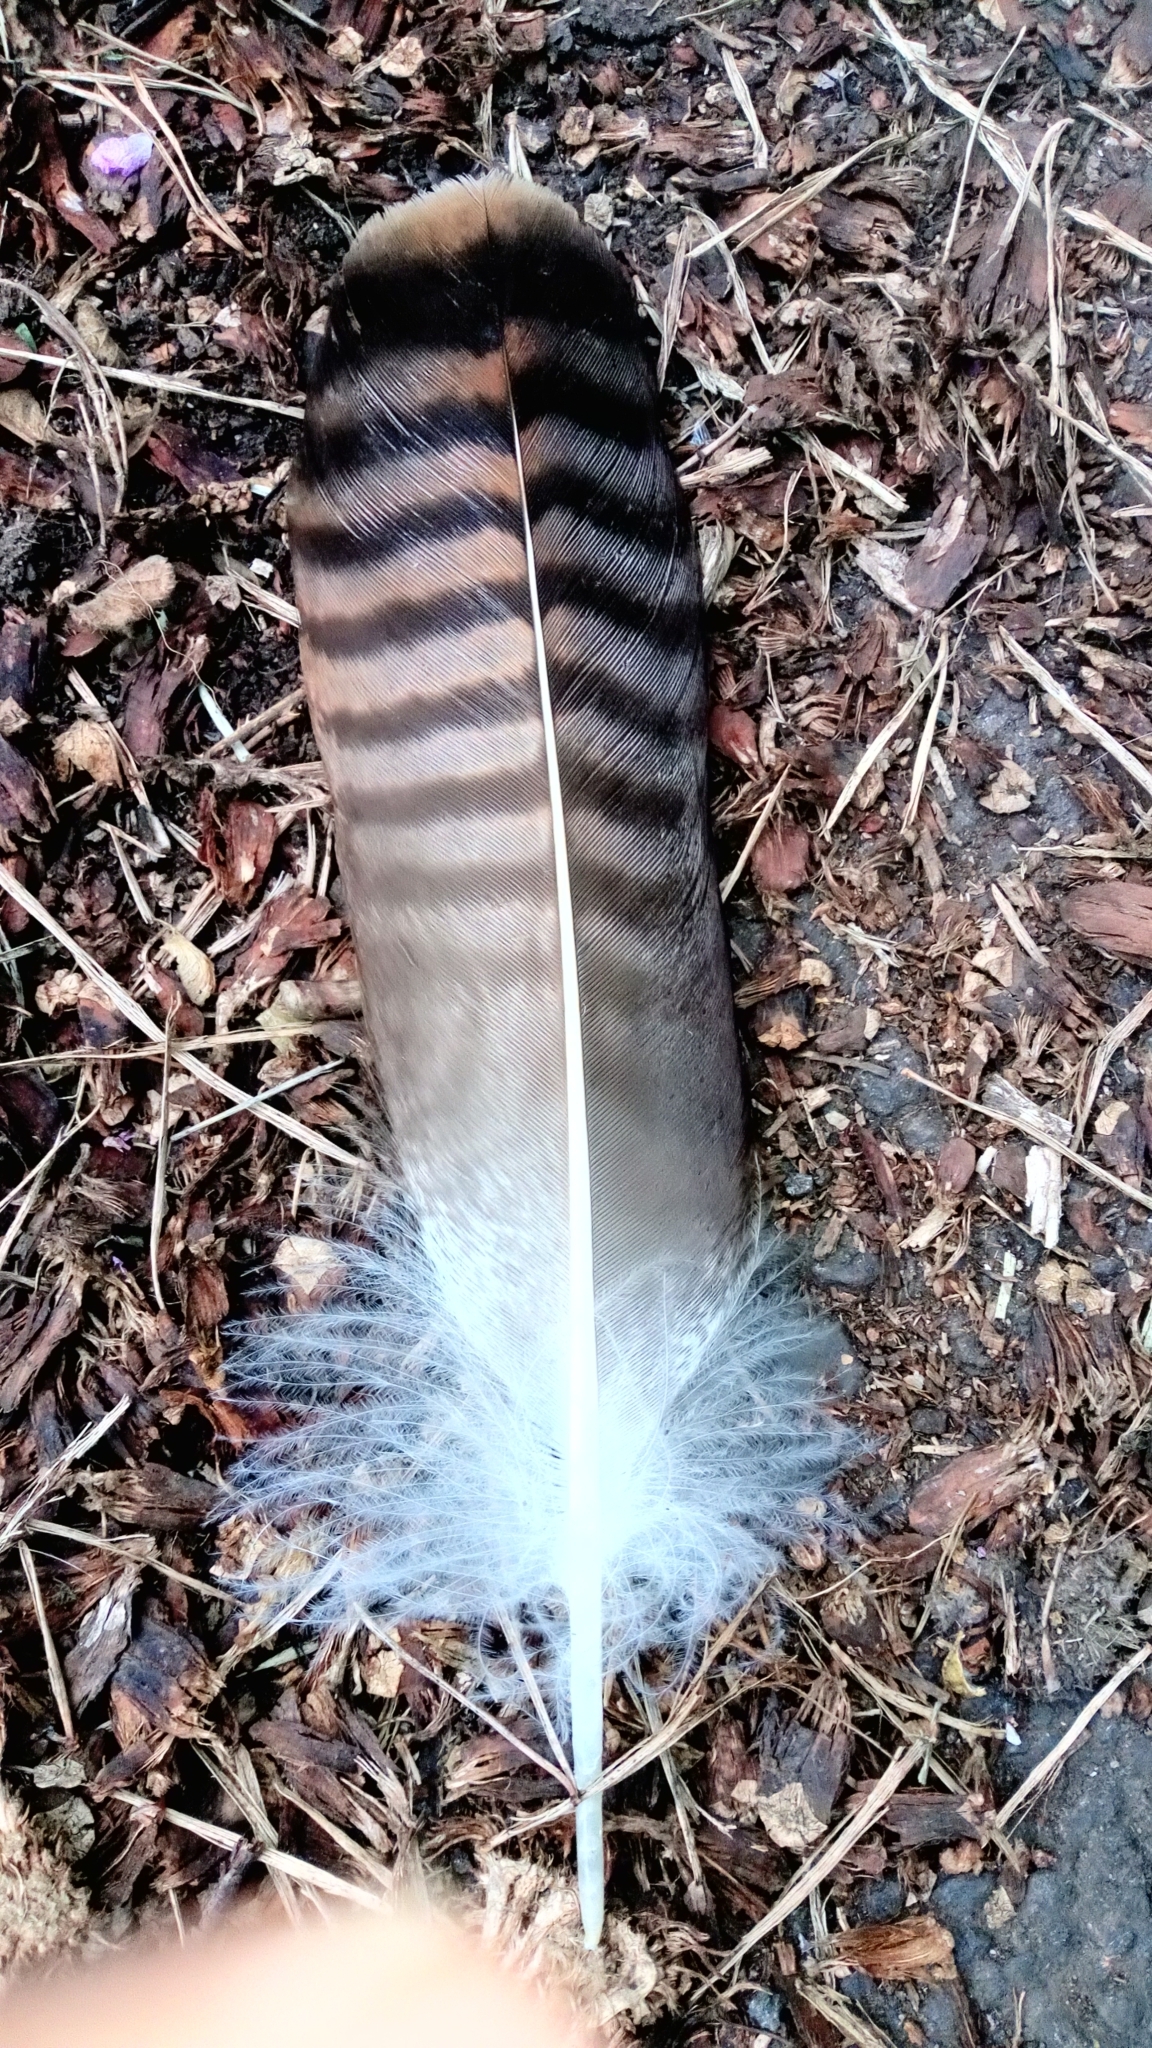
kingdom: Animalia
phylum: Chordata
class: Aves
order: Accipitriformes
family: Accipitridae
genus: Buteo
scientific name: Buteo buteo
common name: Common buzzard
